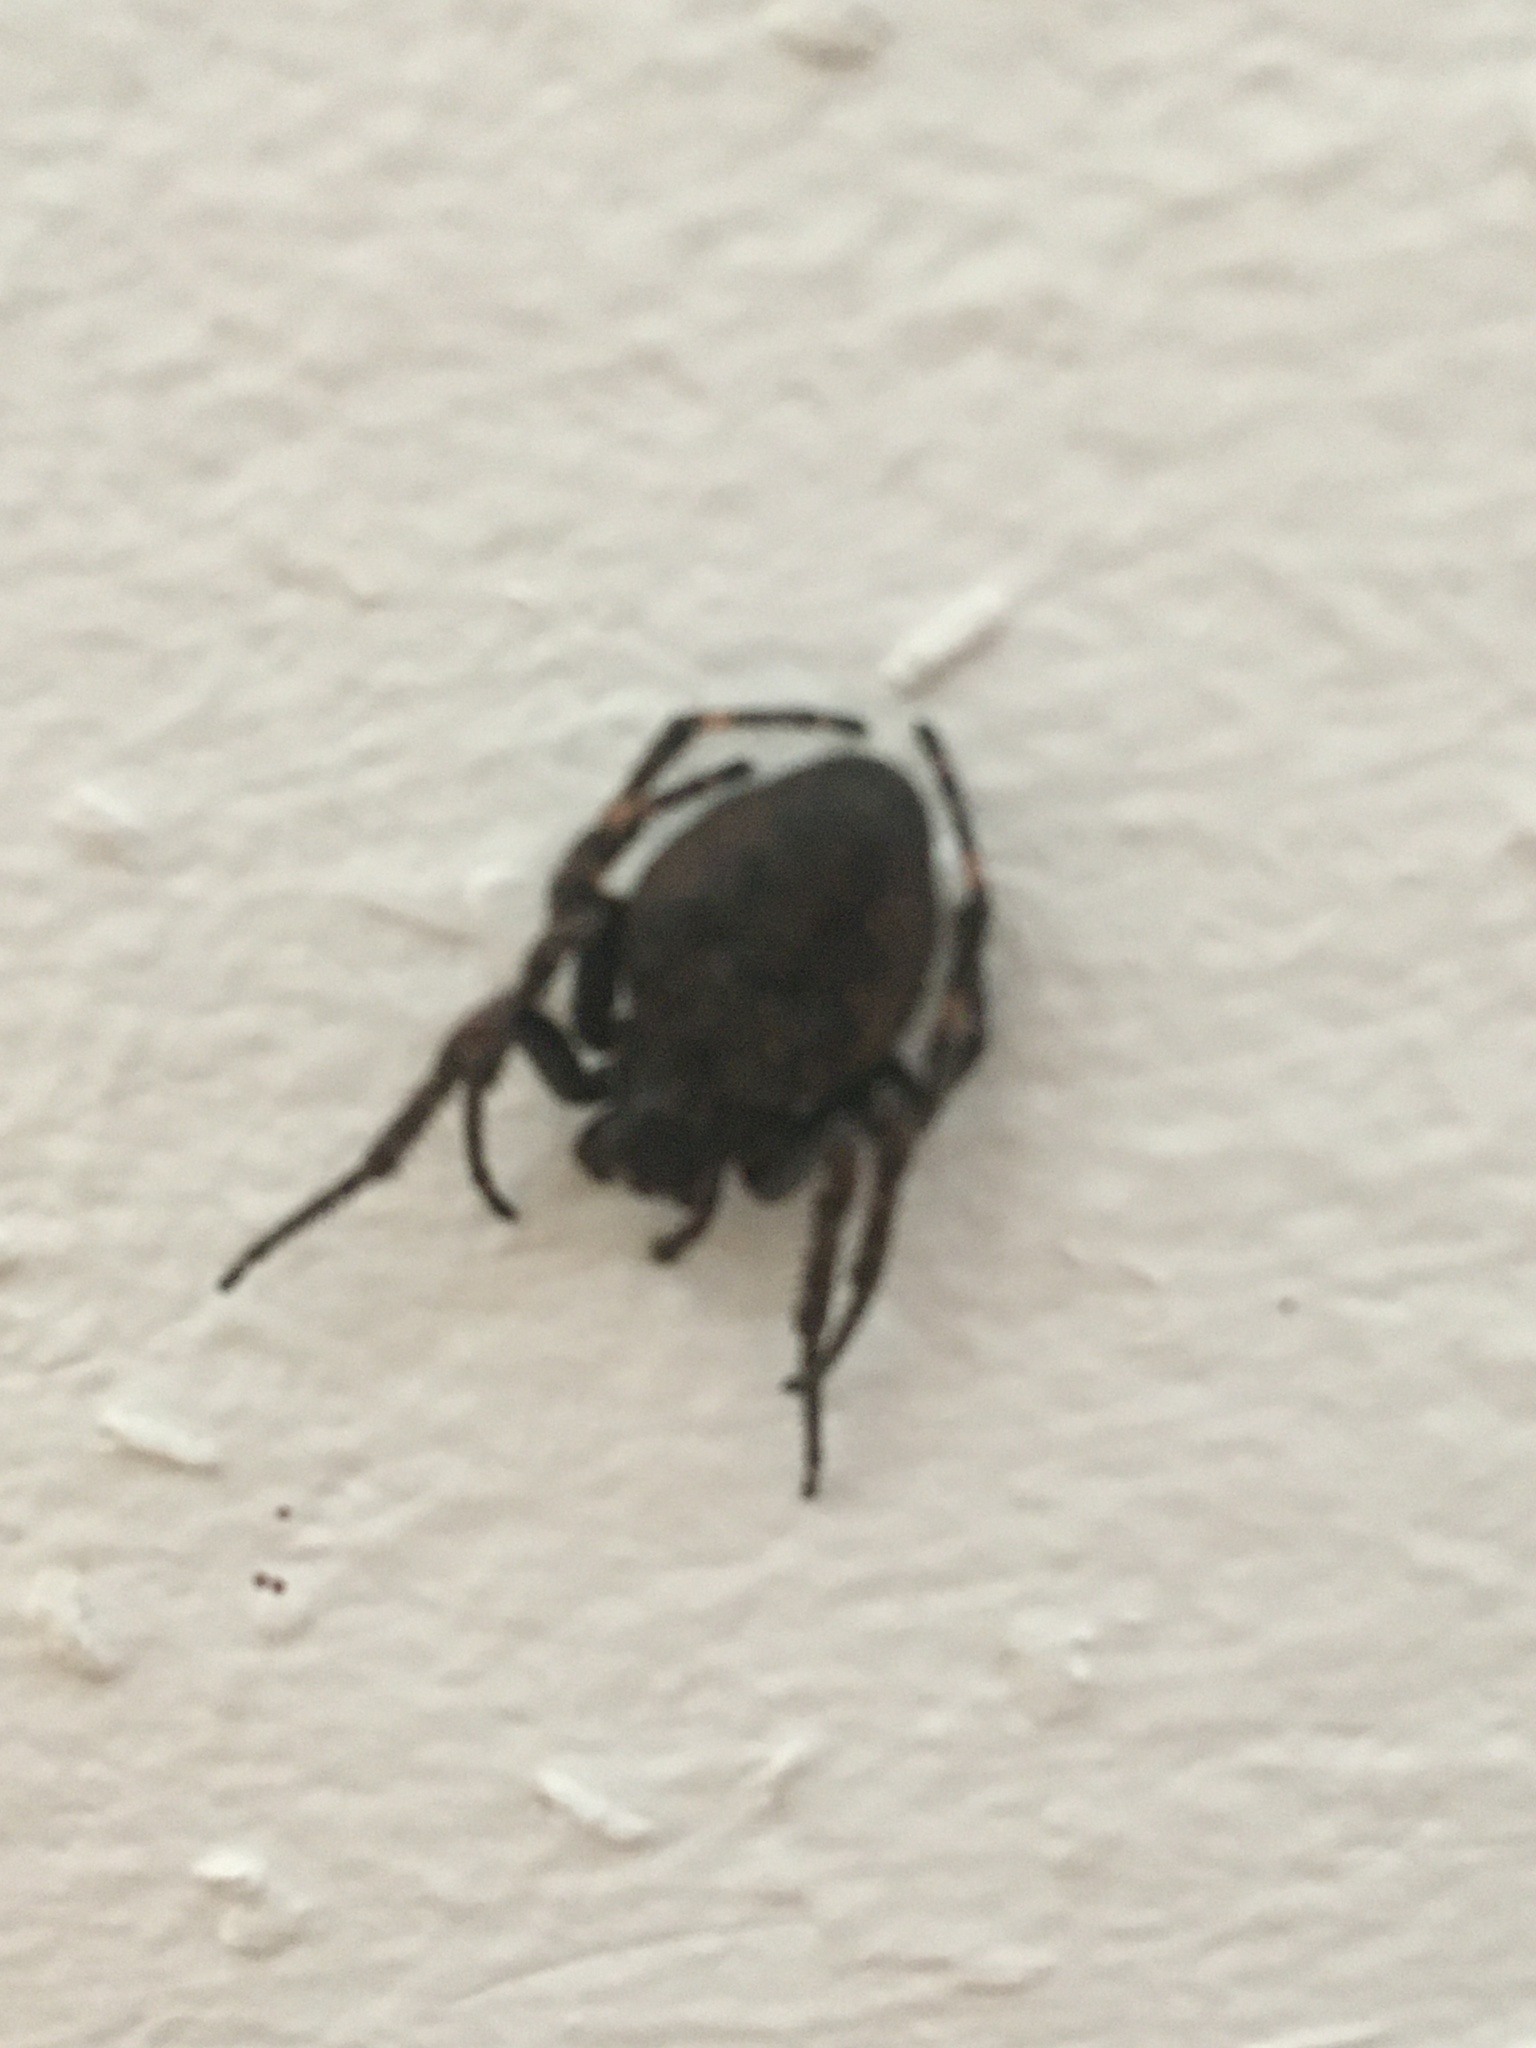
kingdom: Animalia
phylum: Arthropoda
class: Arachnida
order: Araneae
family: Araneidae
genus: Nuctenea
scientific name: Nuctenea umbratica
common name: Toad spider
